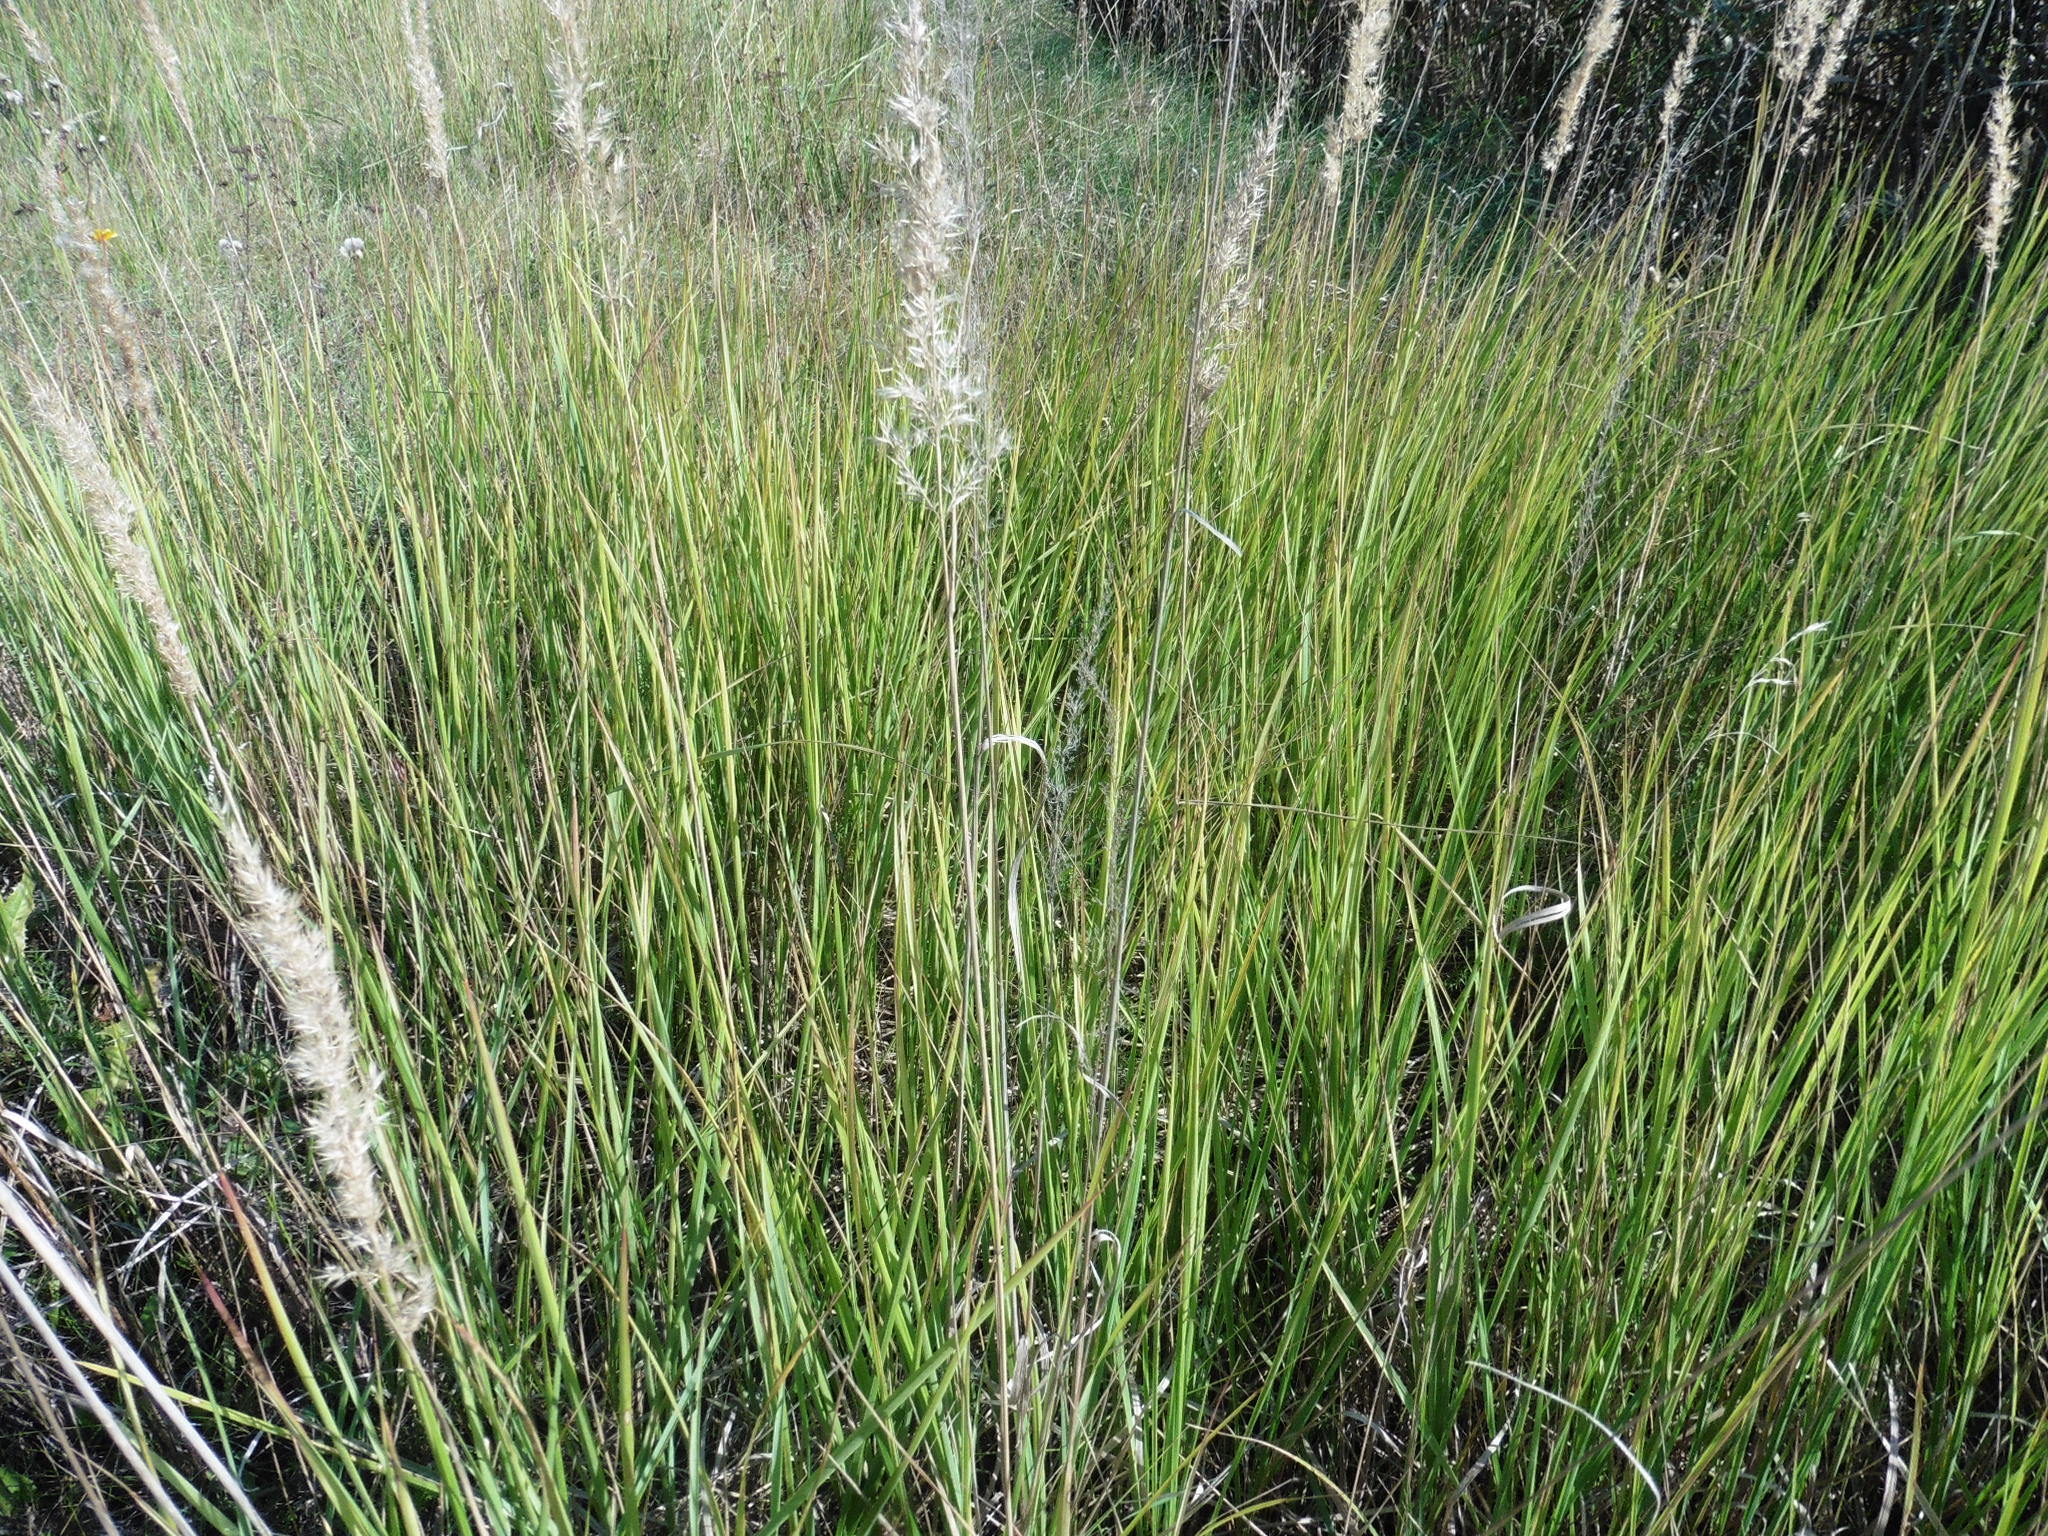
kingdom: Plantae
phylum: Tracheophyta
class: Liliopsida
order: Poales
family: Poaceae
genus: Calamagrostis
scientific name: Calamagrostis epigejos
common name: Wood small-reed
